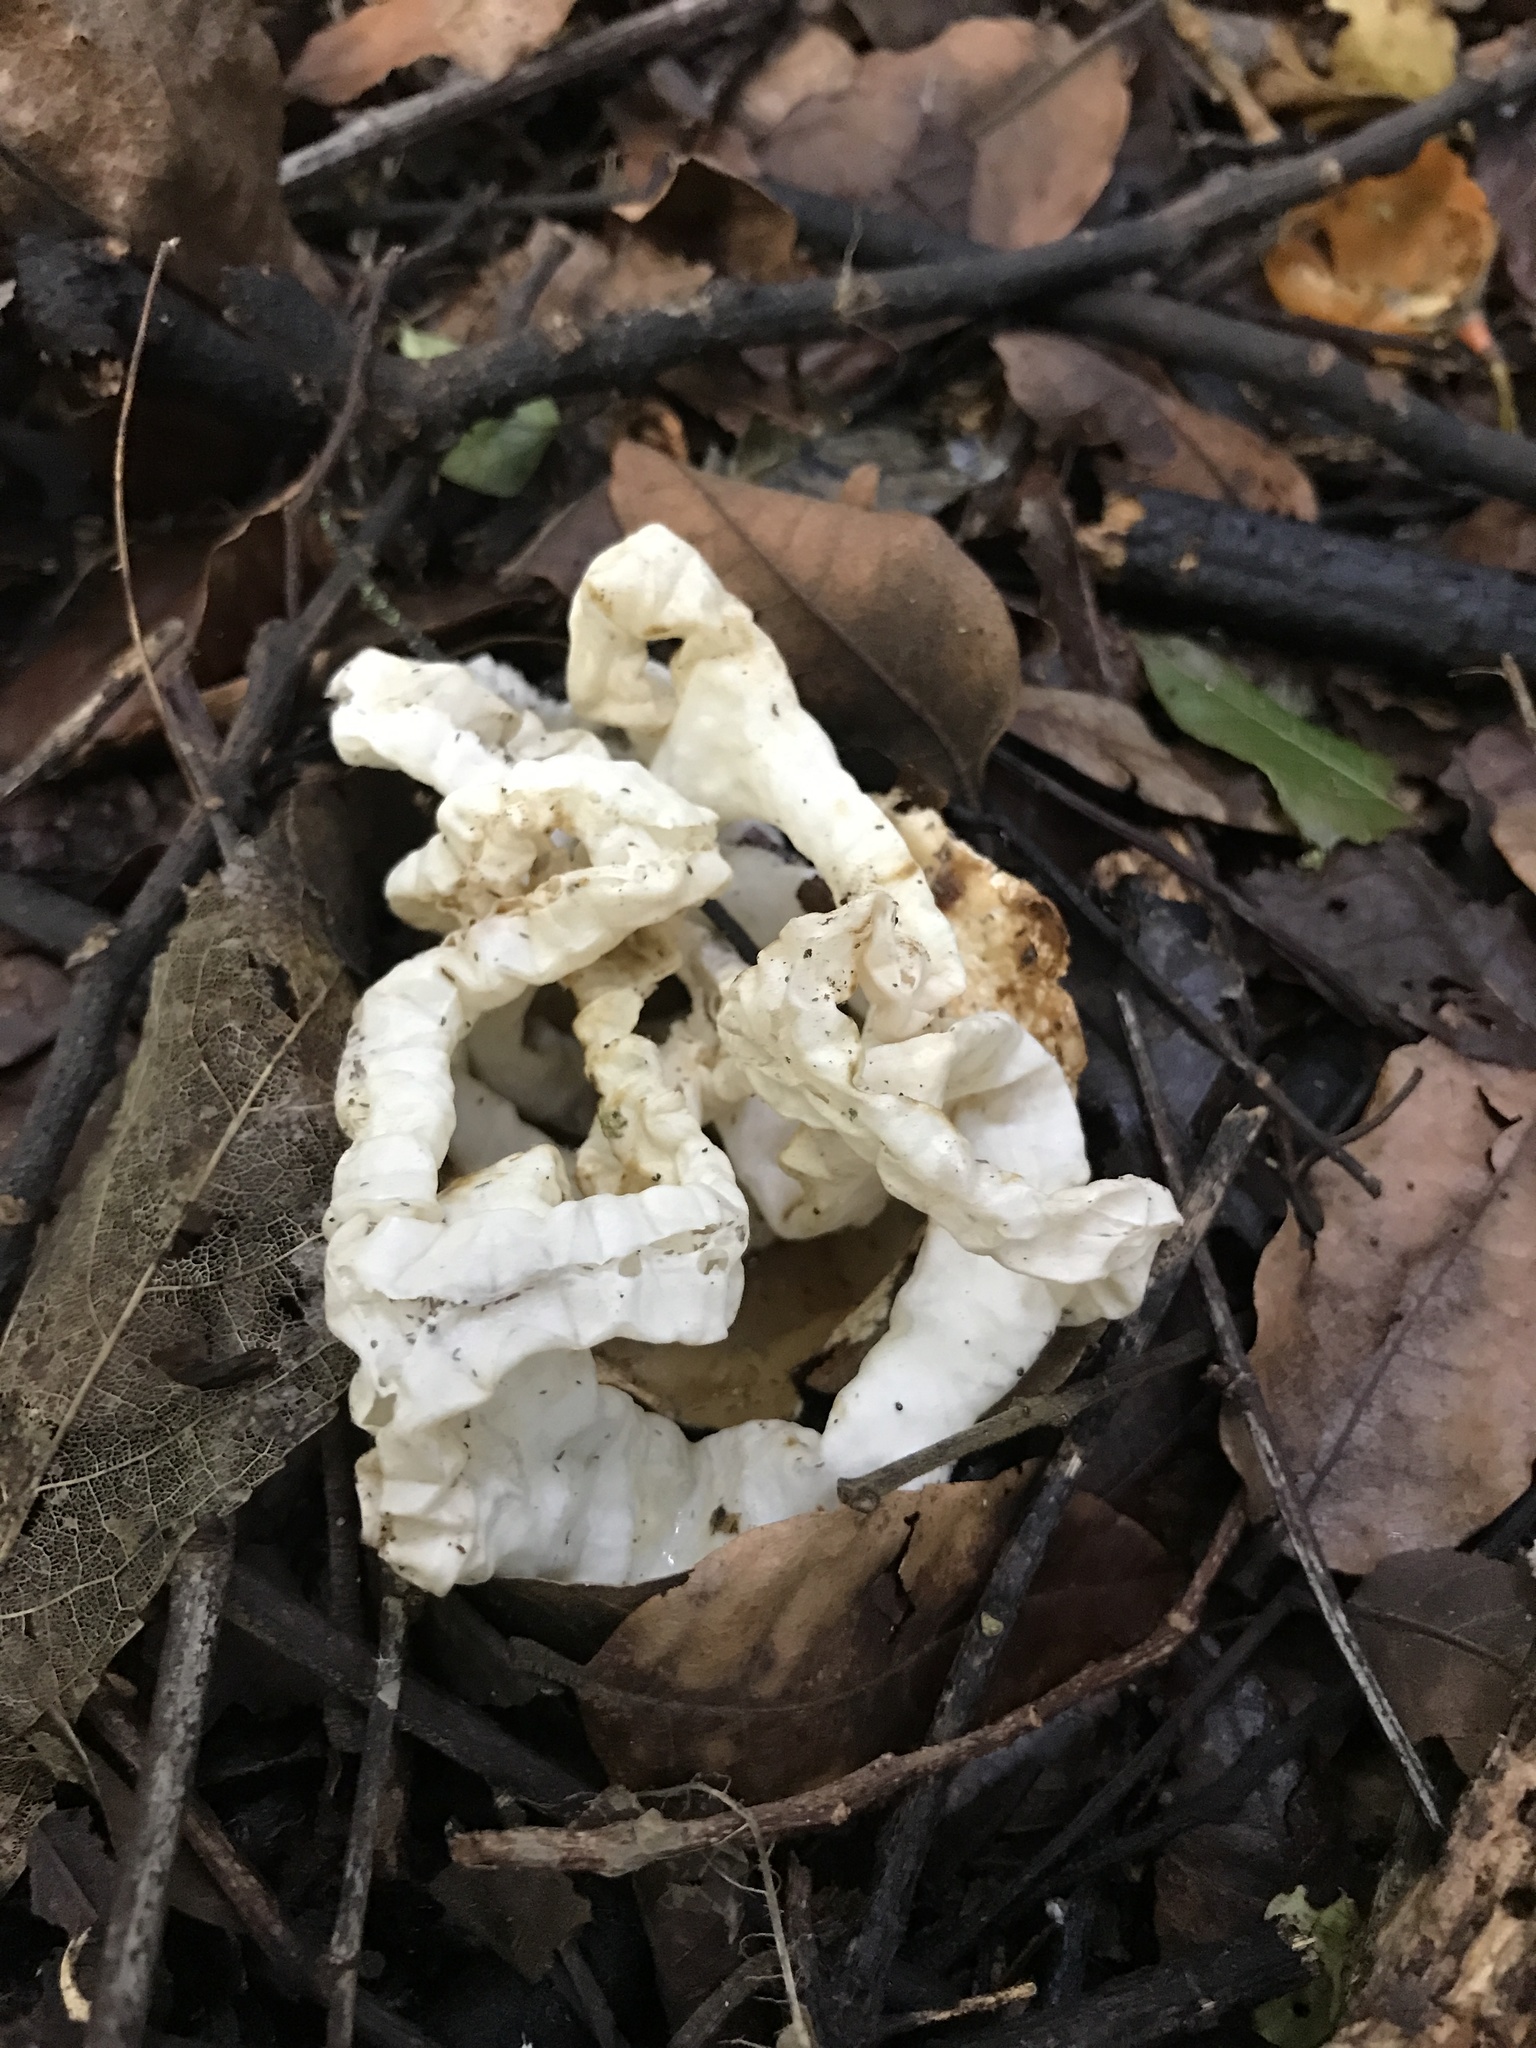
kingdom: Fungi
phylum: Basidiomycota
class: Agaricomycetes
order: Phallales
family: Phallaceae
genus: Ileodictyon
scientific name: Ileodictyon cibarium
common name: Basket fungus
